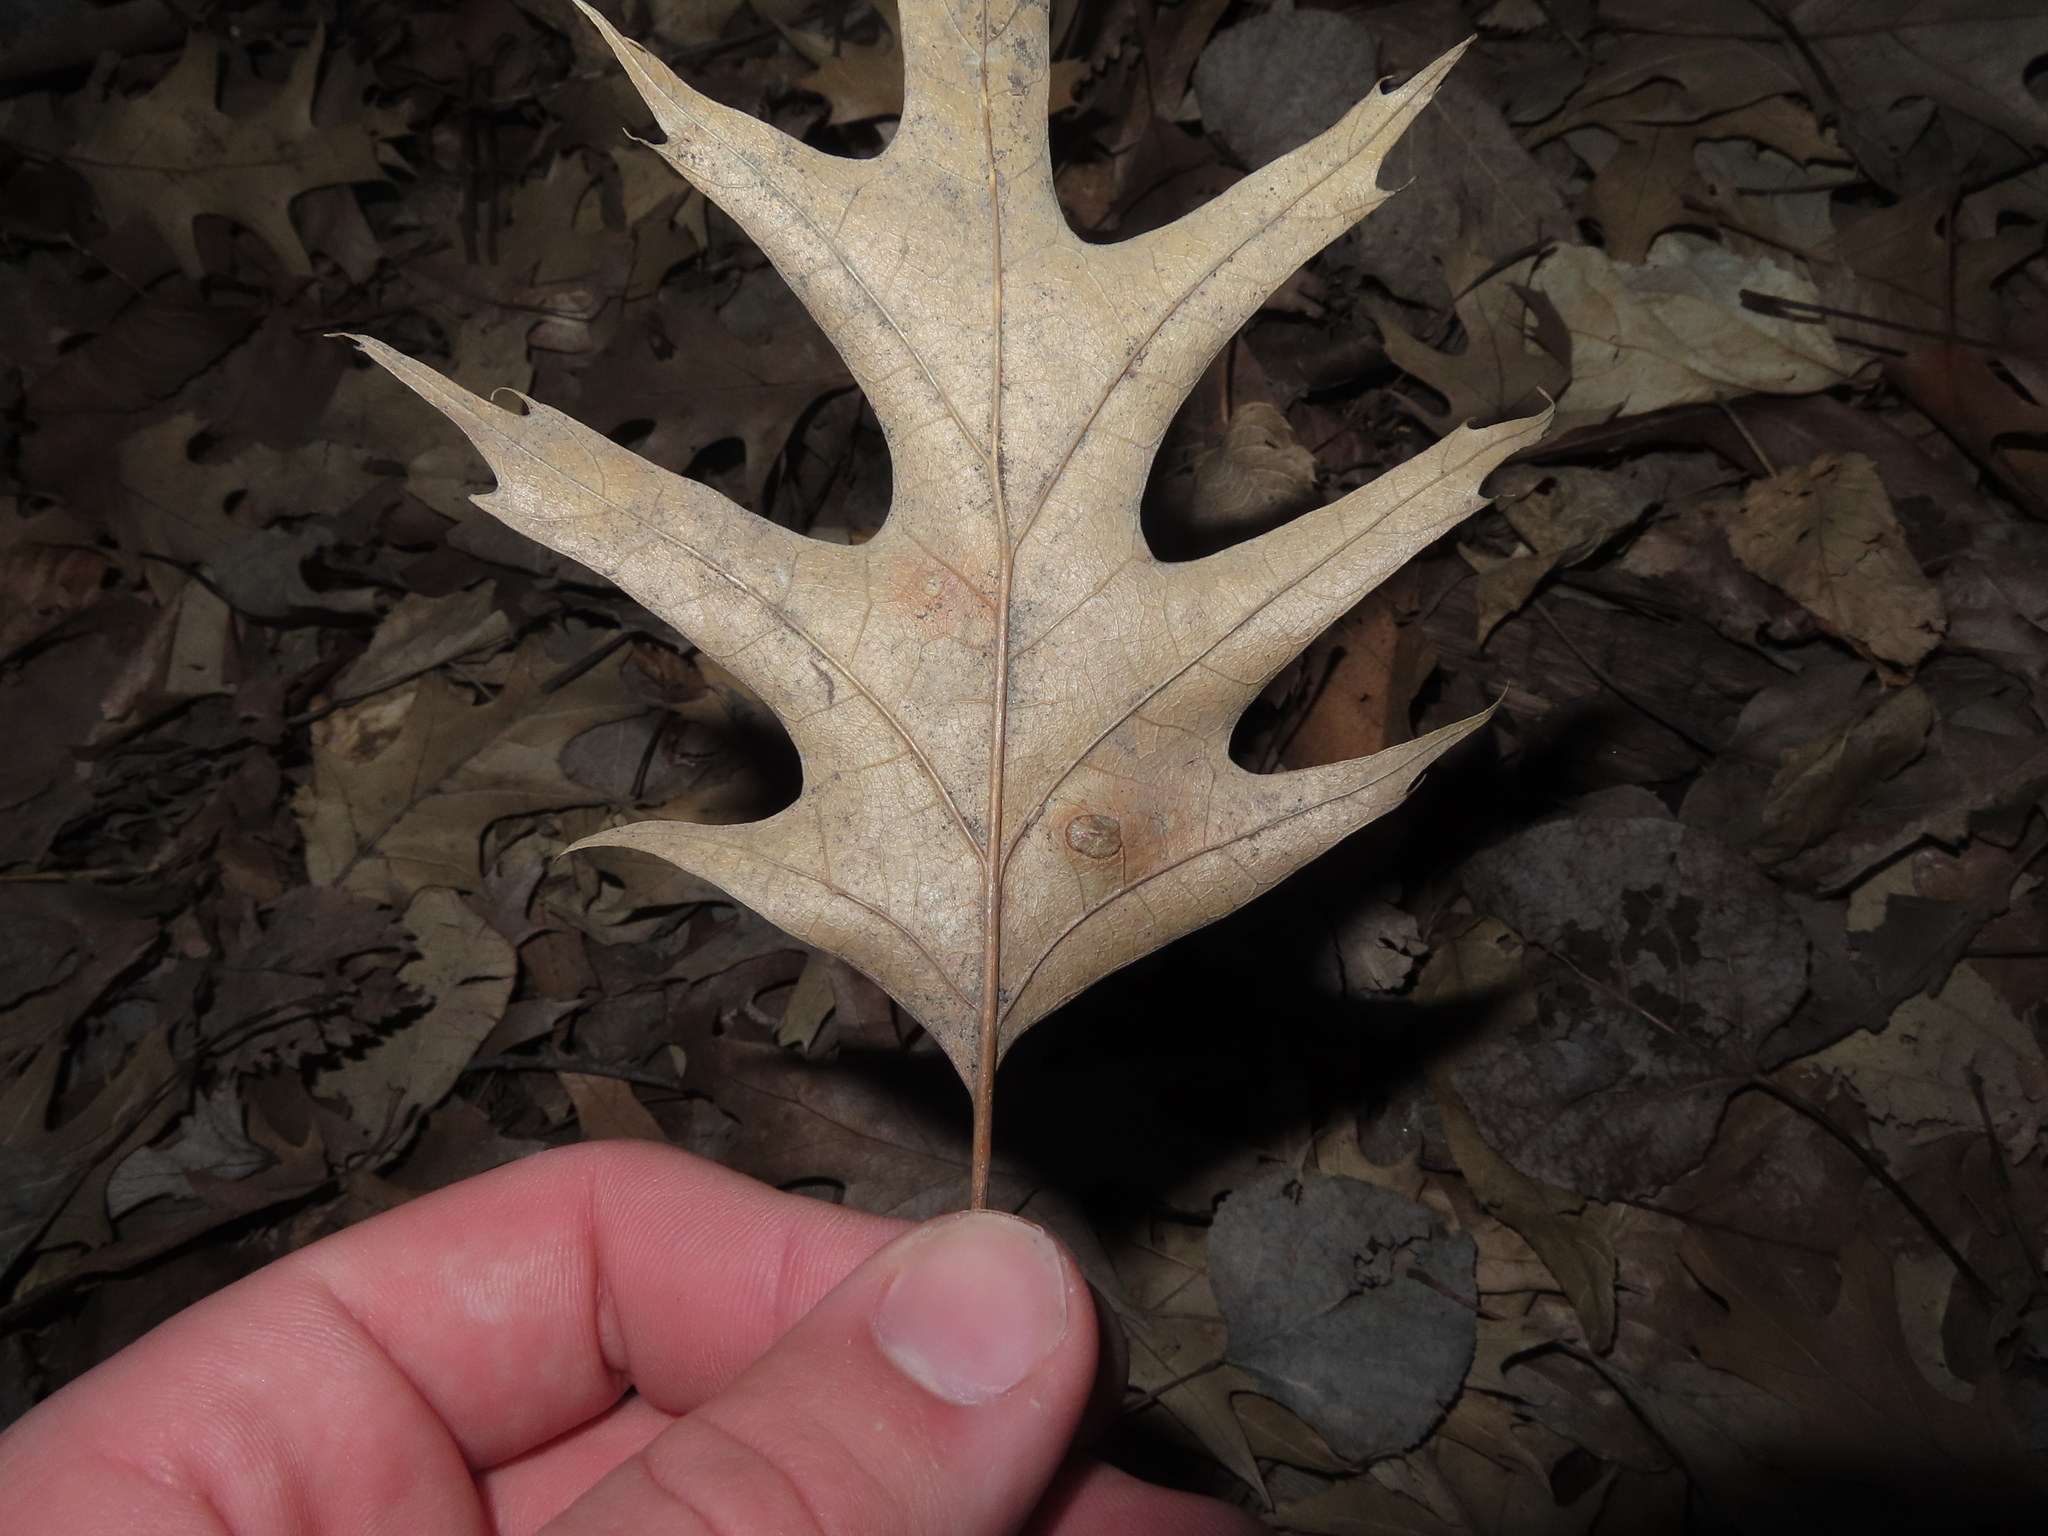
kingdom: Animalia
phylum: Arthropoda
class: Insecta
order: Diptera
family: Cecidomyiidae
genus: Polystepha
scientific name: Polystepha pilulae
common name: Oak leaf gall midge
